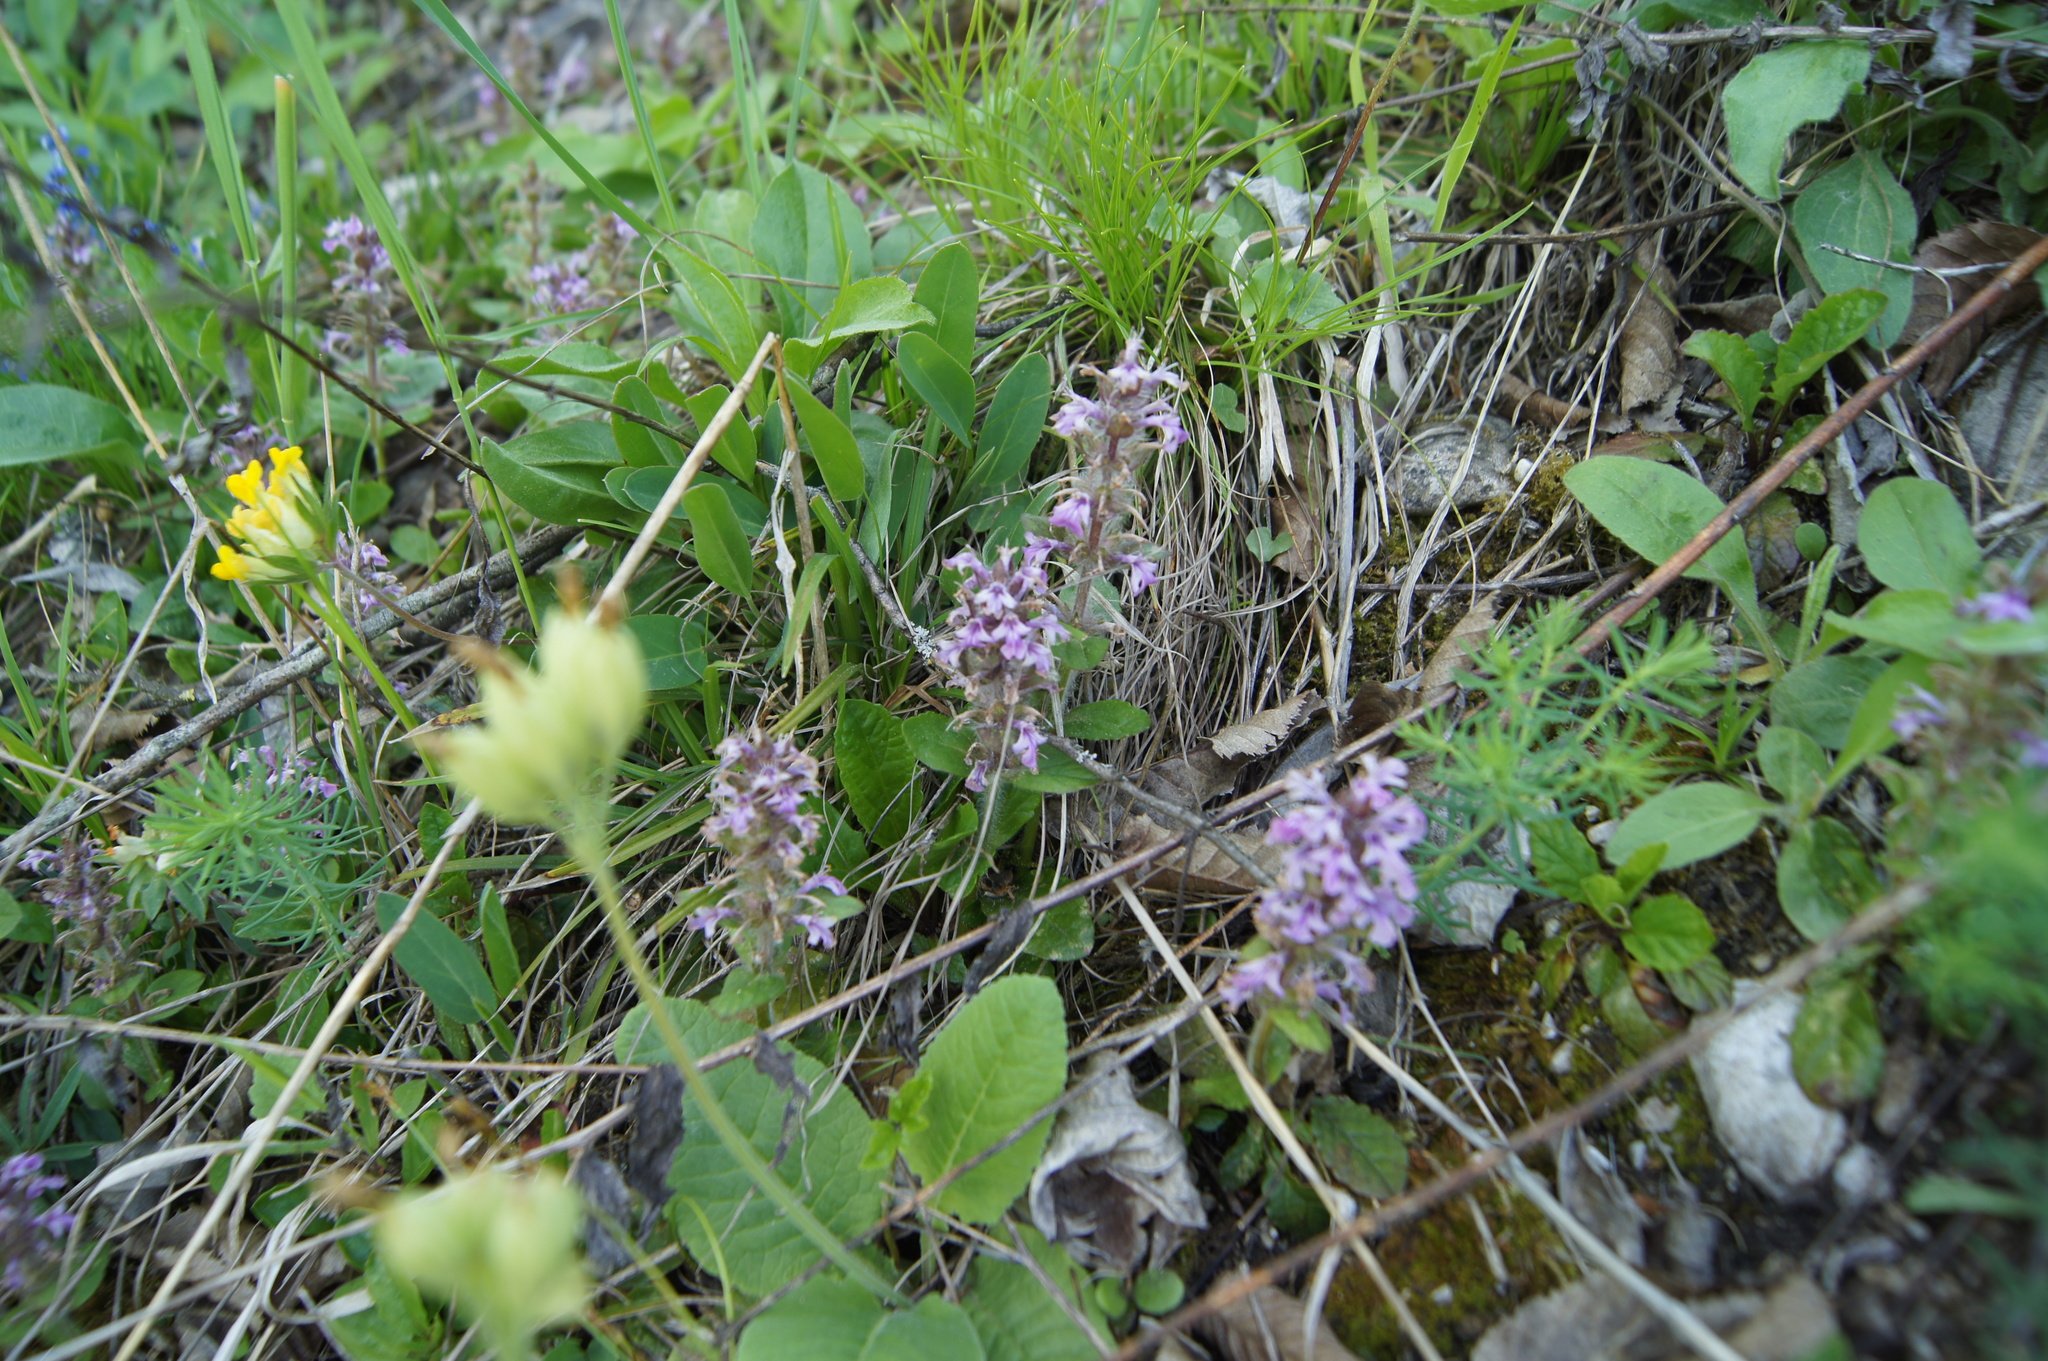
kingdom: Plantae
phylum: Tracheophyta
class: Magnoliopsida
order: Lamiales
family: Lamiaceae
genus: Ajuga
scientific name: Ajuga reptans
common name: Bugle
